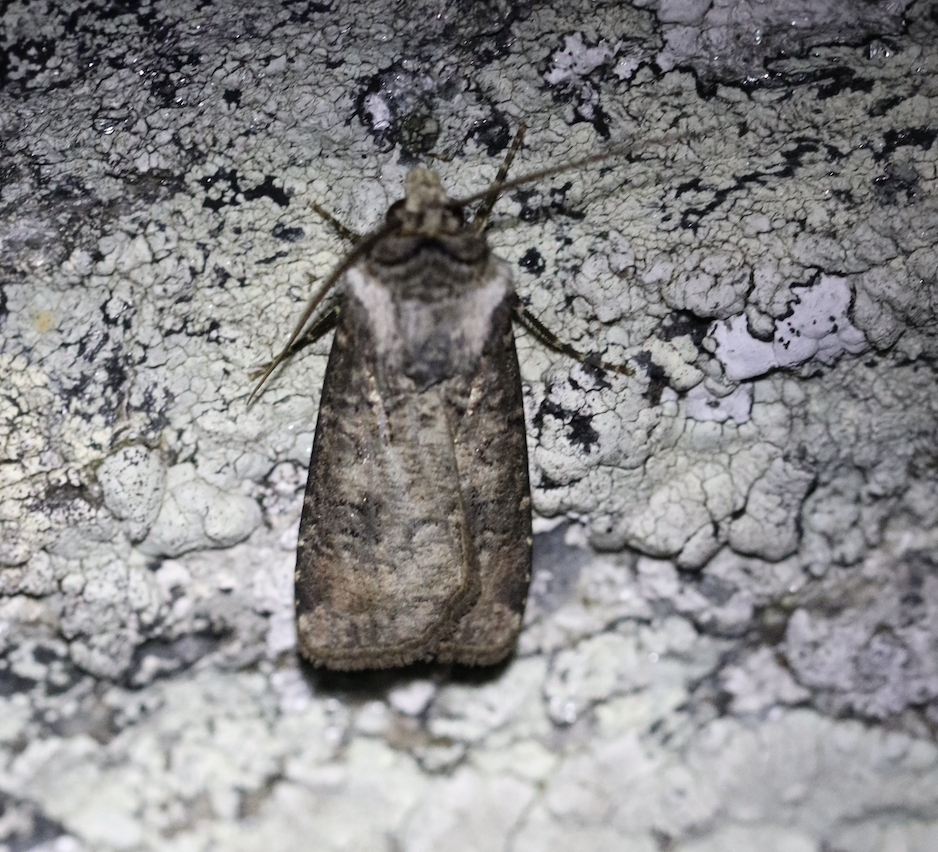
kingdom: Animalia
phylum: Arthropoda
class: Insecta
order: Lepidoptera
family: Noctuidae
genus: Agrotis
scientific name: Agrotis clavis
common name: Heart and club
